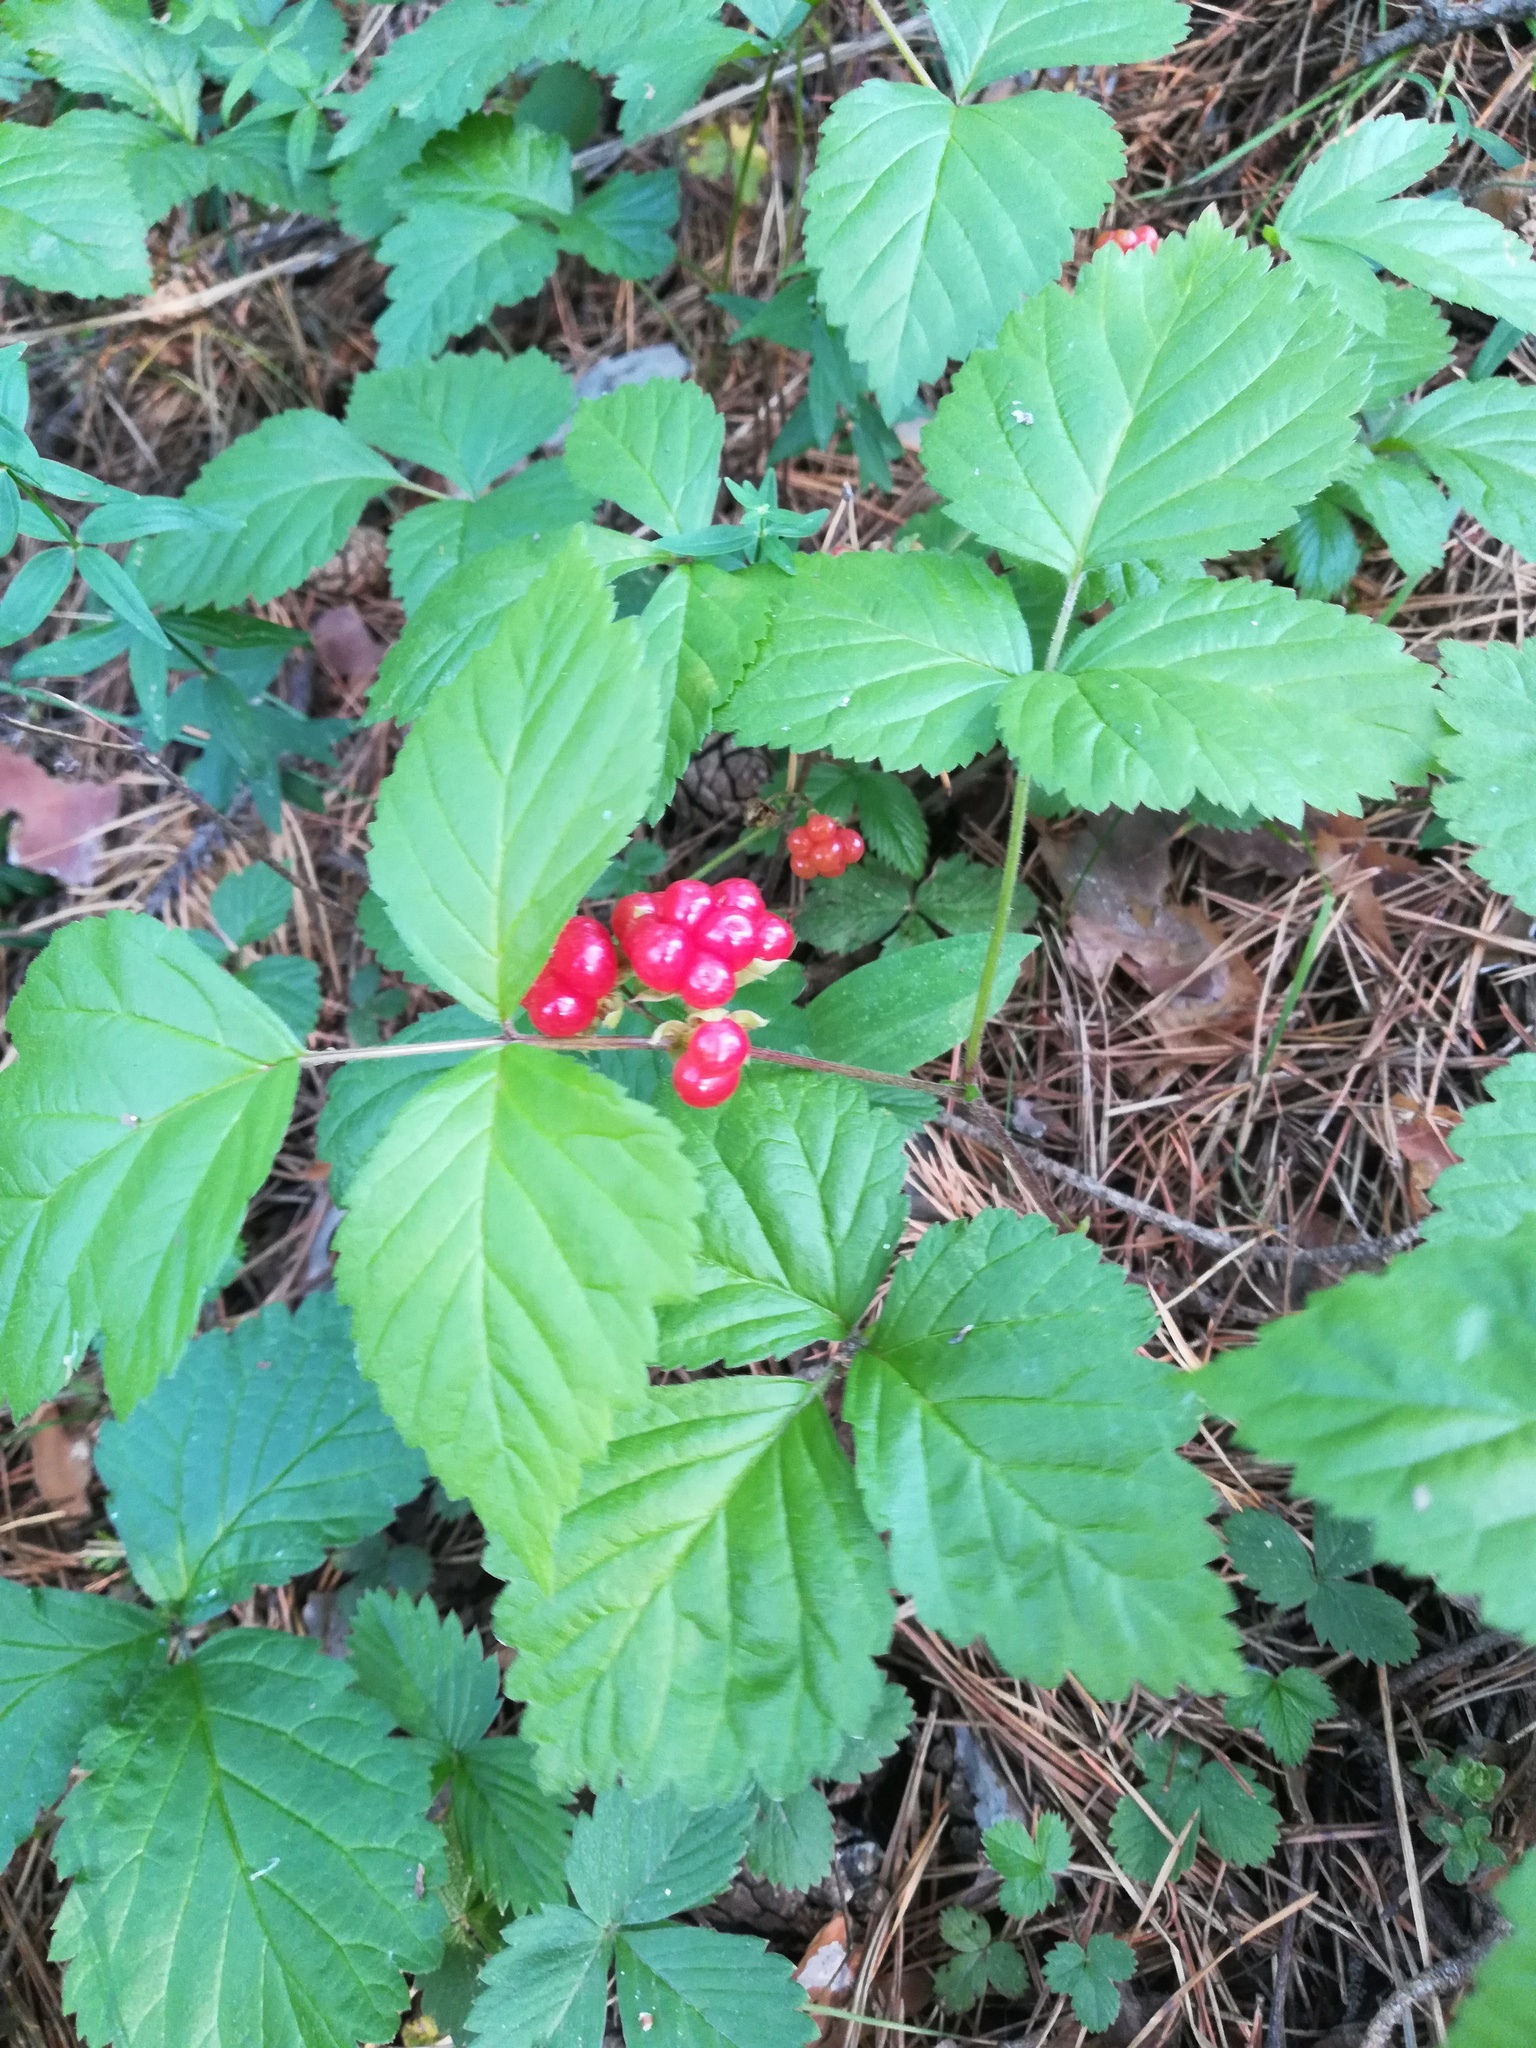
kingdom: Plantae
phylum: Tracheophyta
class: Magnoliopsida
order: Rosales
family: Rosaceae
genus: Rubus
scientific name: Rubus saxatilis
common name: Stone bramble
